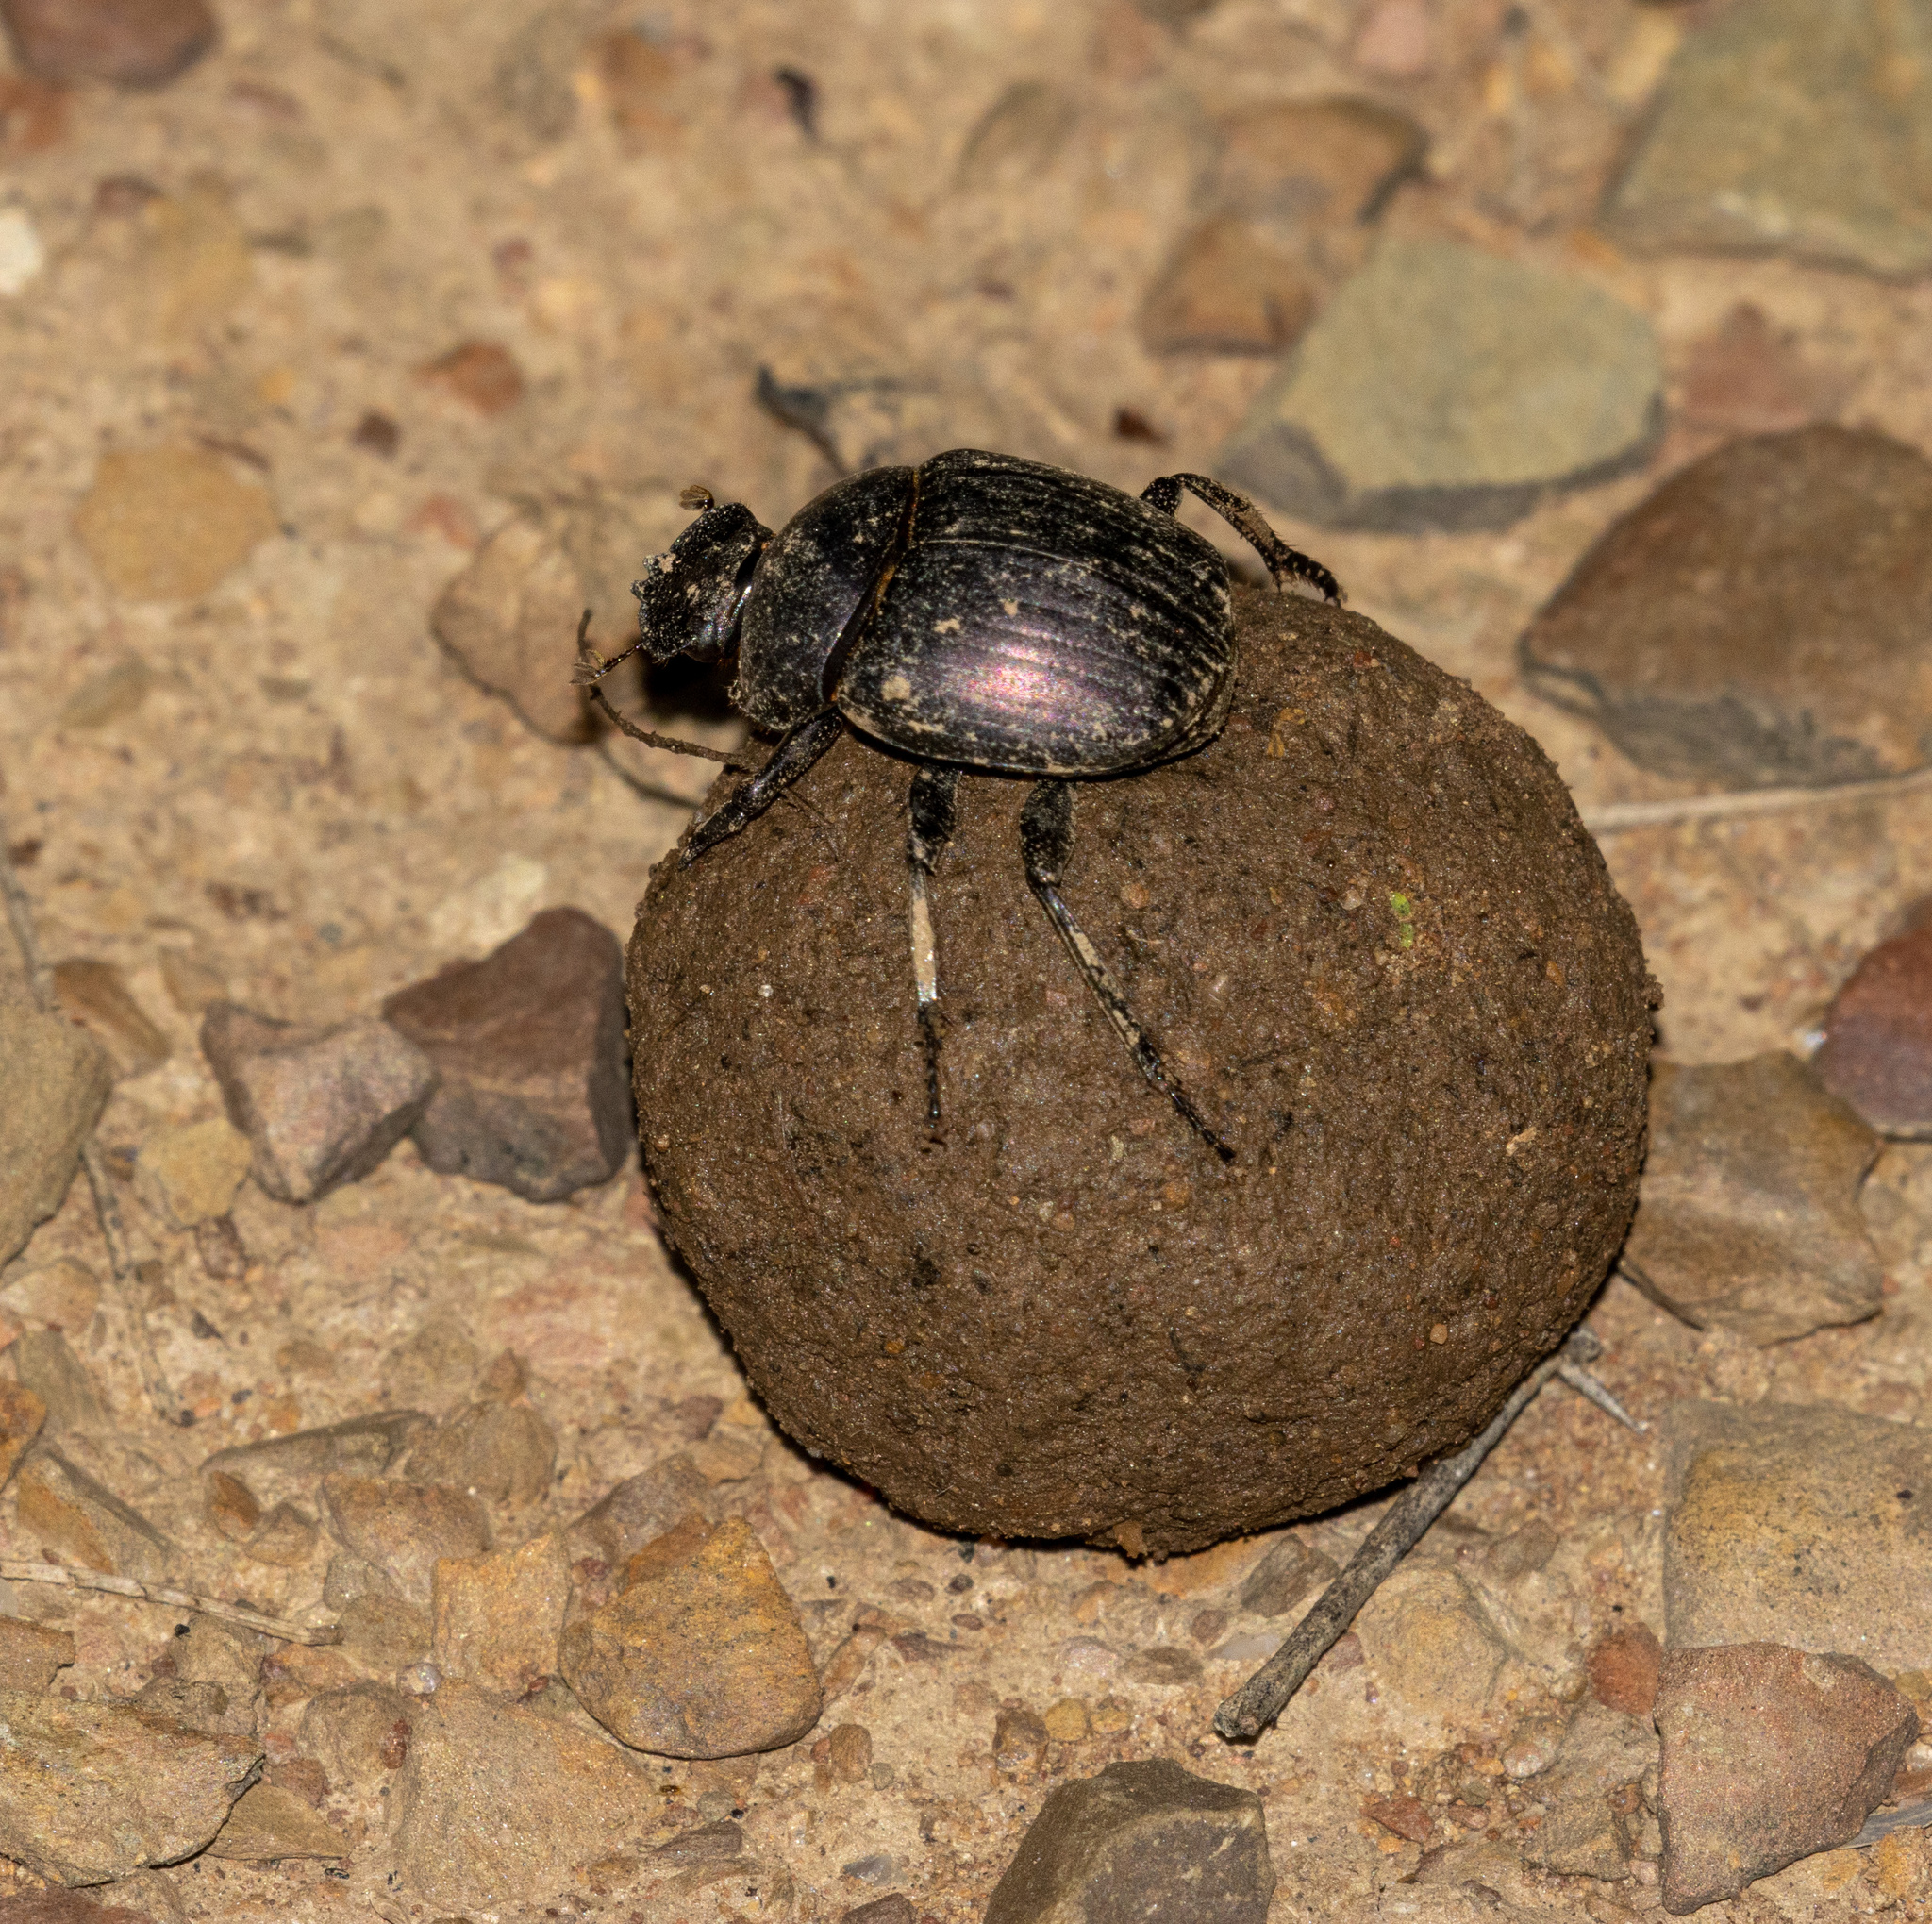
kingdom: Animalia
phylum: Arthropoda
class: Insecta
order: Coleoptera
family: Scarabaeidae
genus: Malagoniella
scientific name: Malagoniella astyanax
